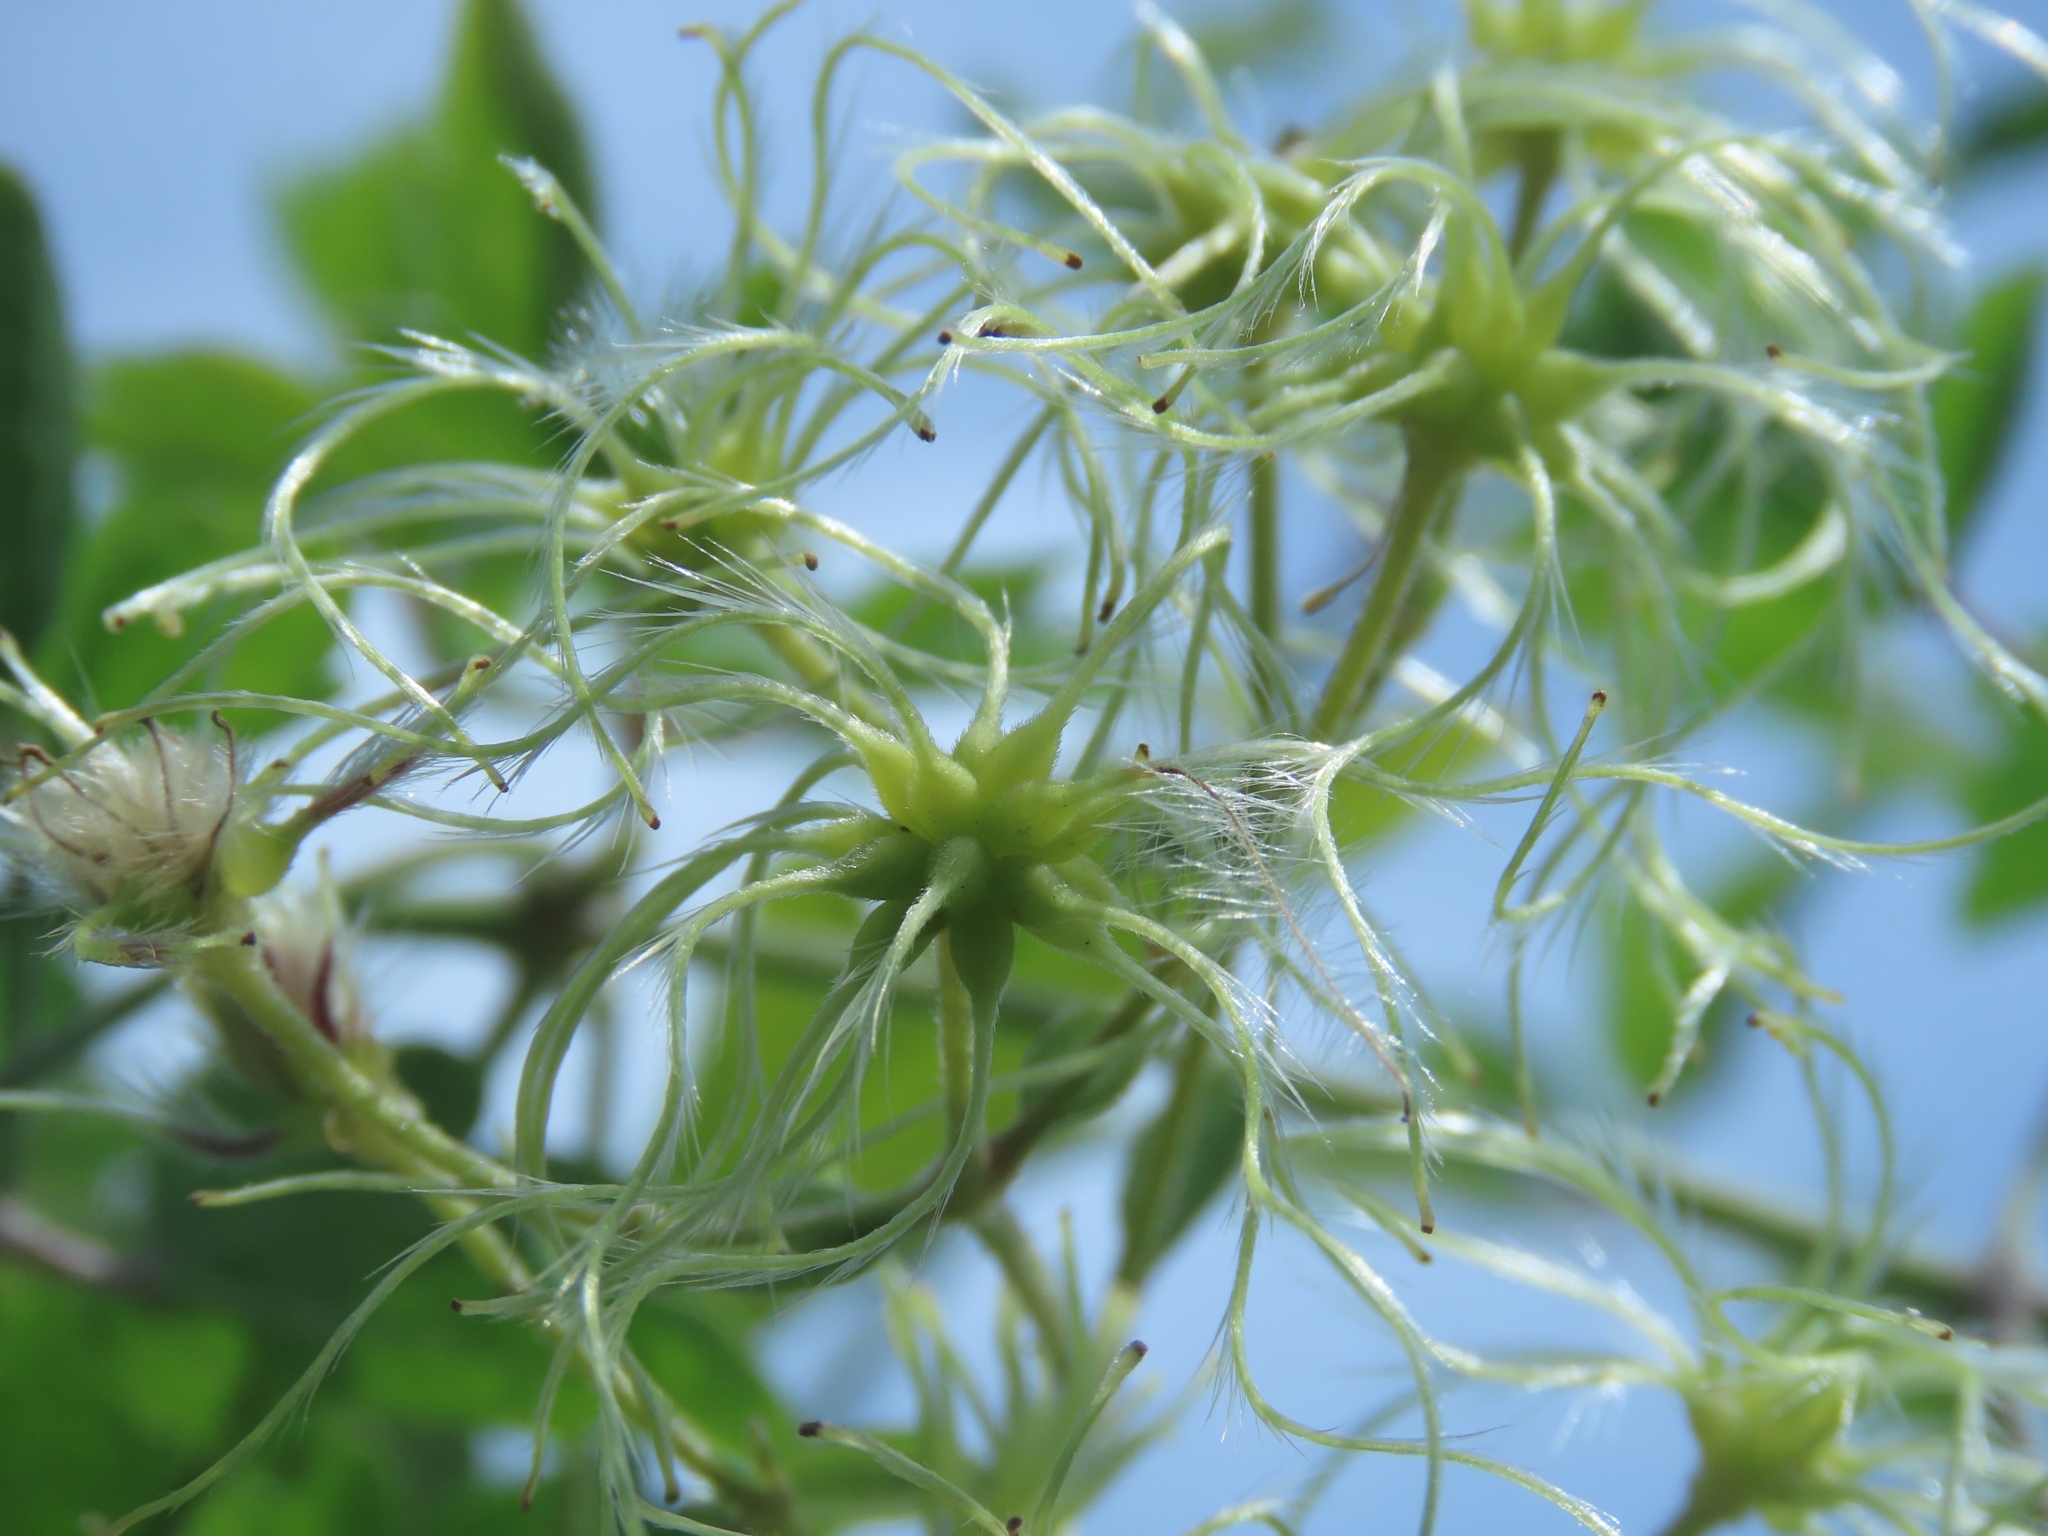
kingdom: Plantae
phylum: Tracheophyta
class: Magnoliopsida
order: Ranunculales
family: Ranunculaceae
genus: Clematis
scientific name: Clematis grata
